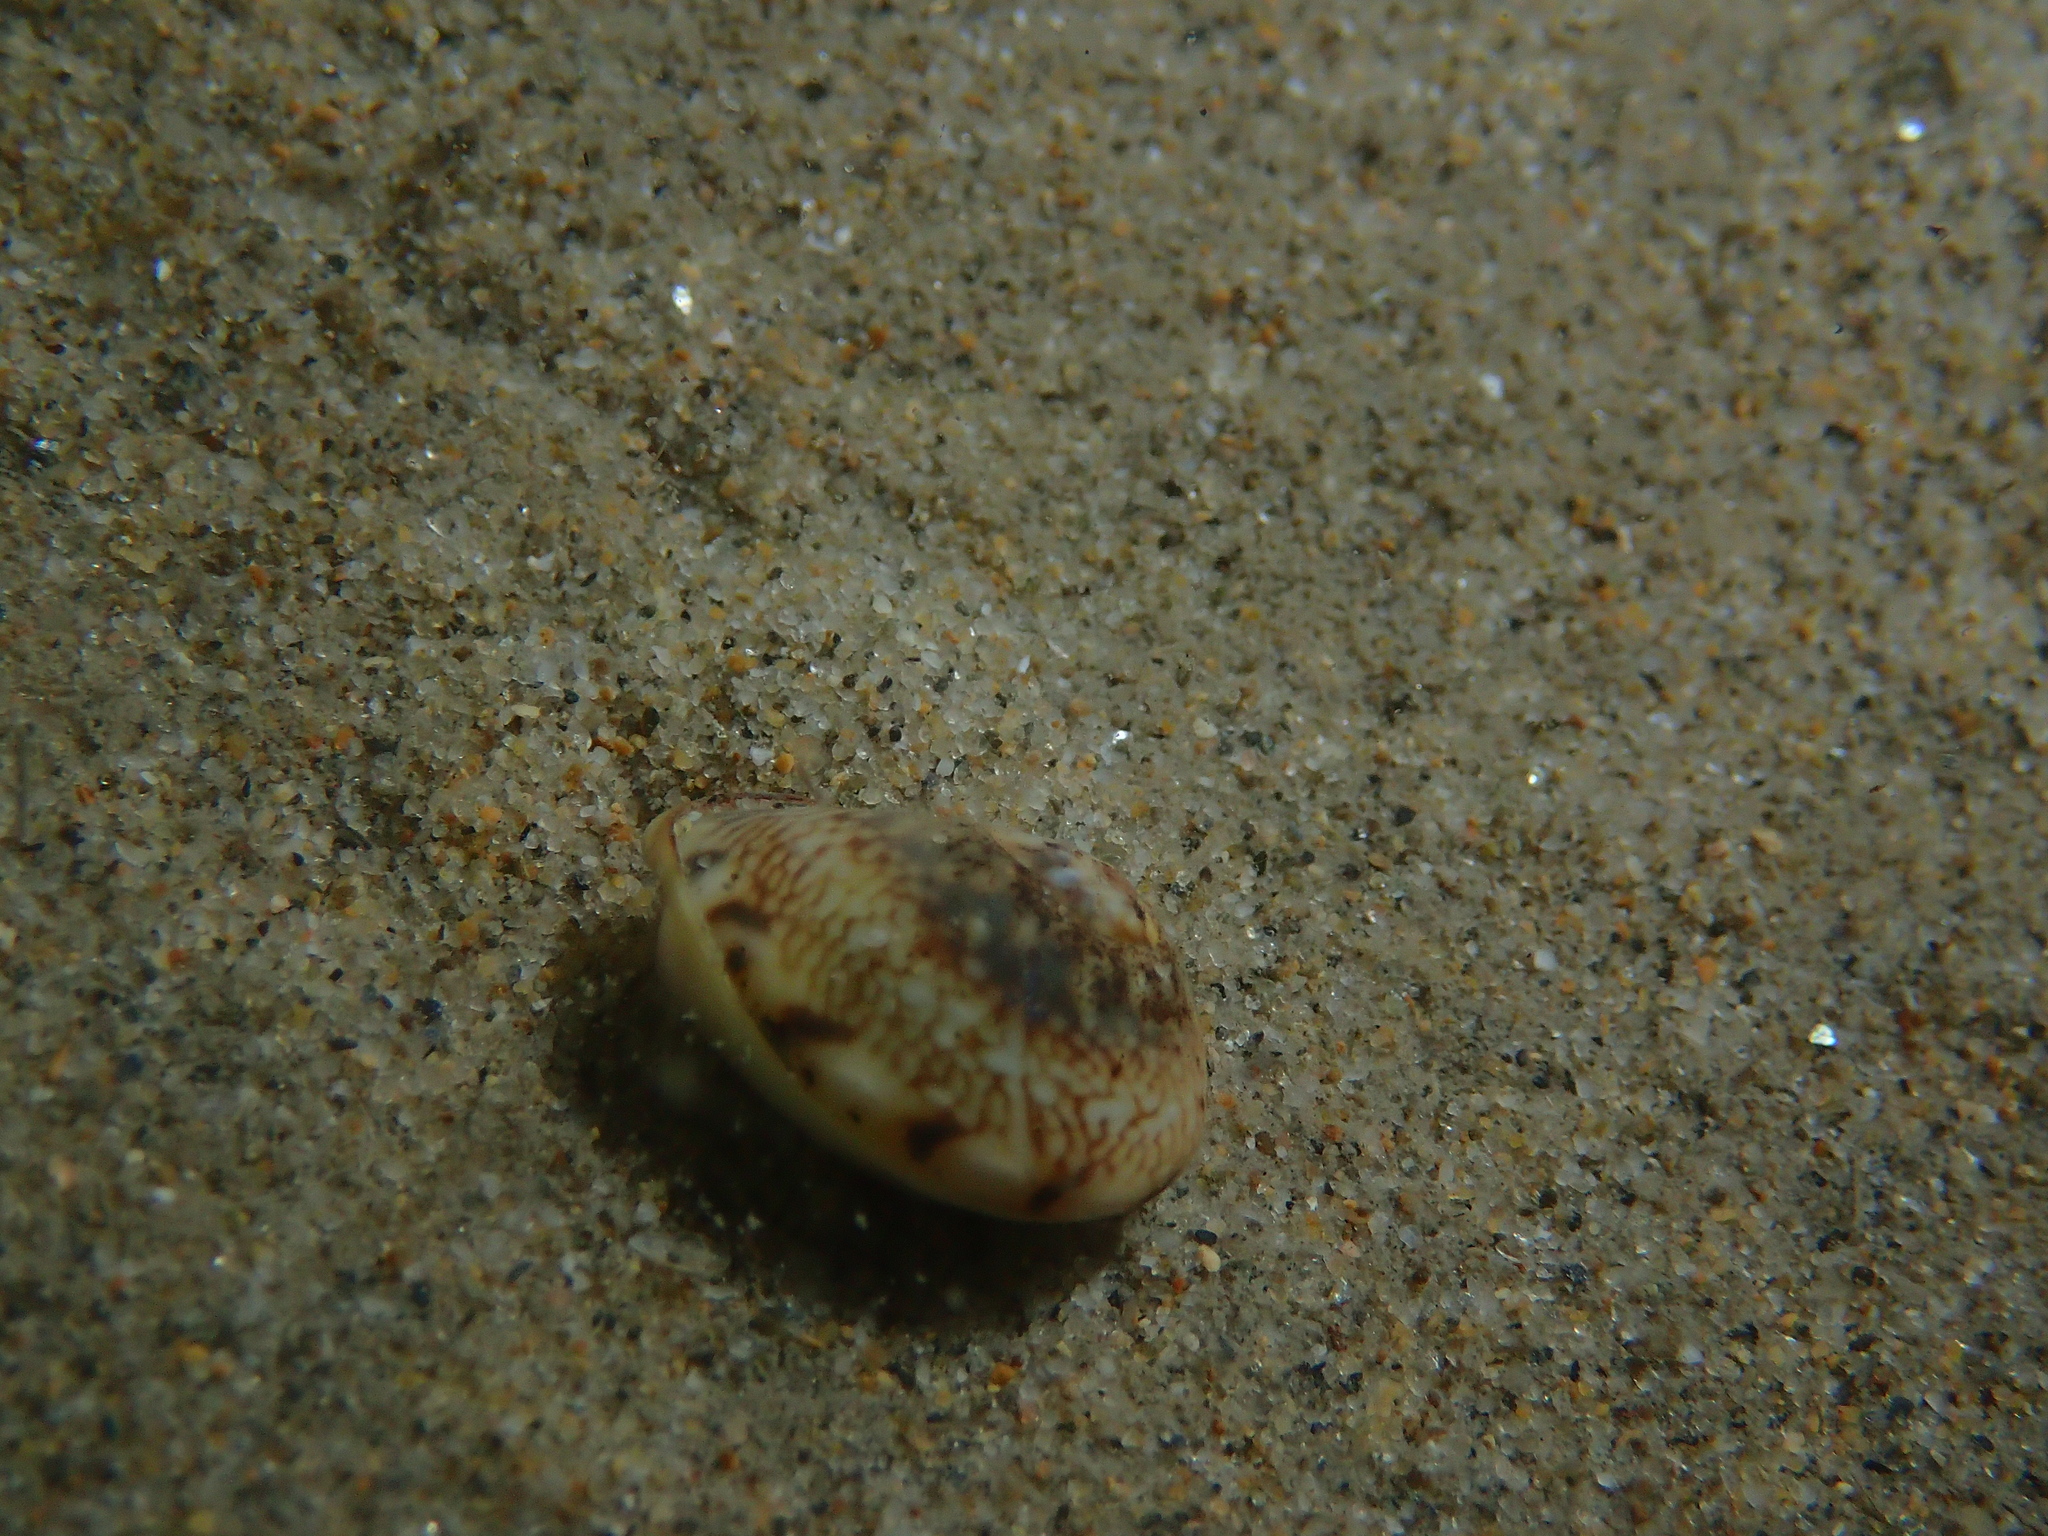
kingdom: Animalia
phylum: Mollusca
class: Gastropoda
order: Neogastropoda
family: Nassariidae
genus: Tritia
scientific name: Tritia neritea
